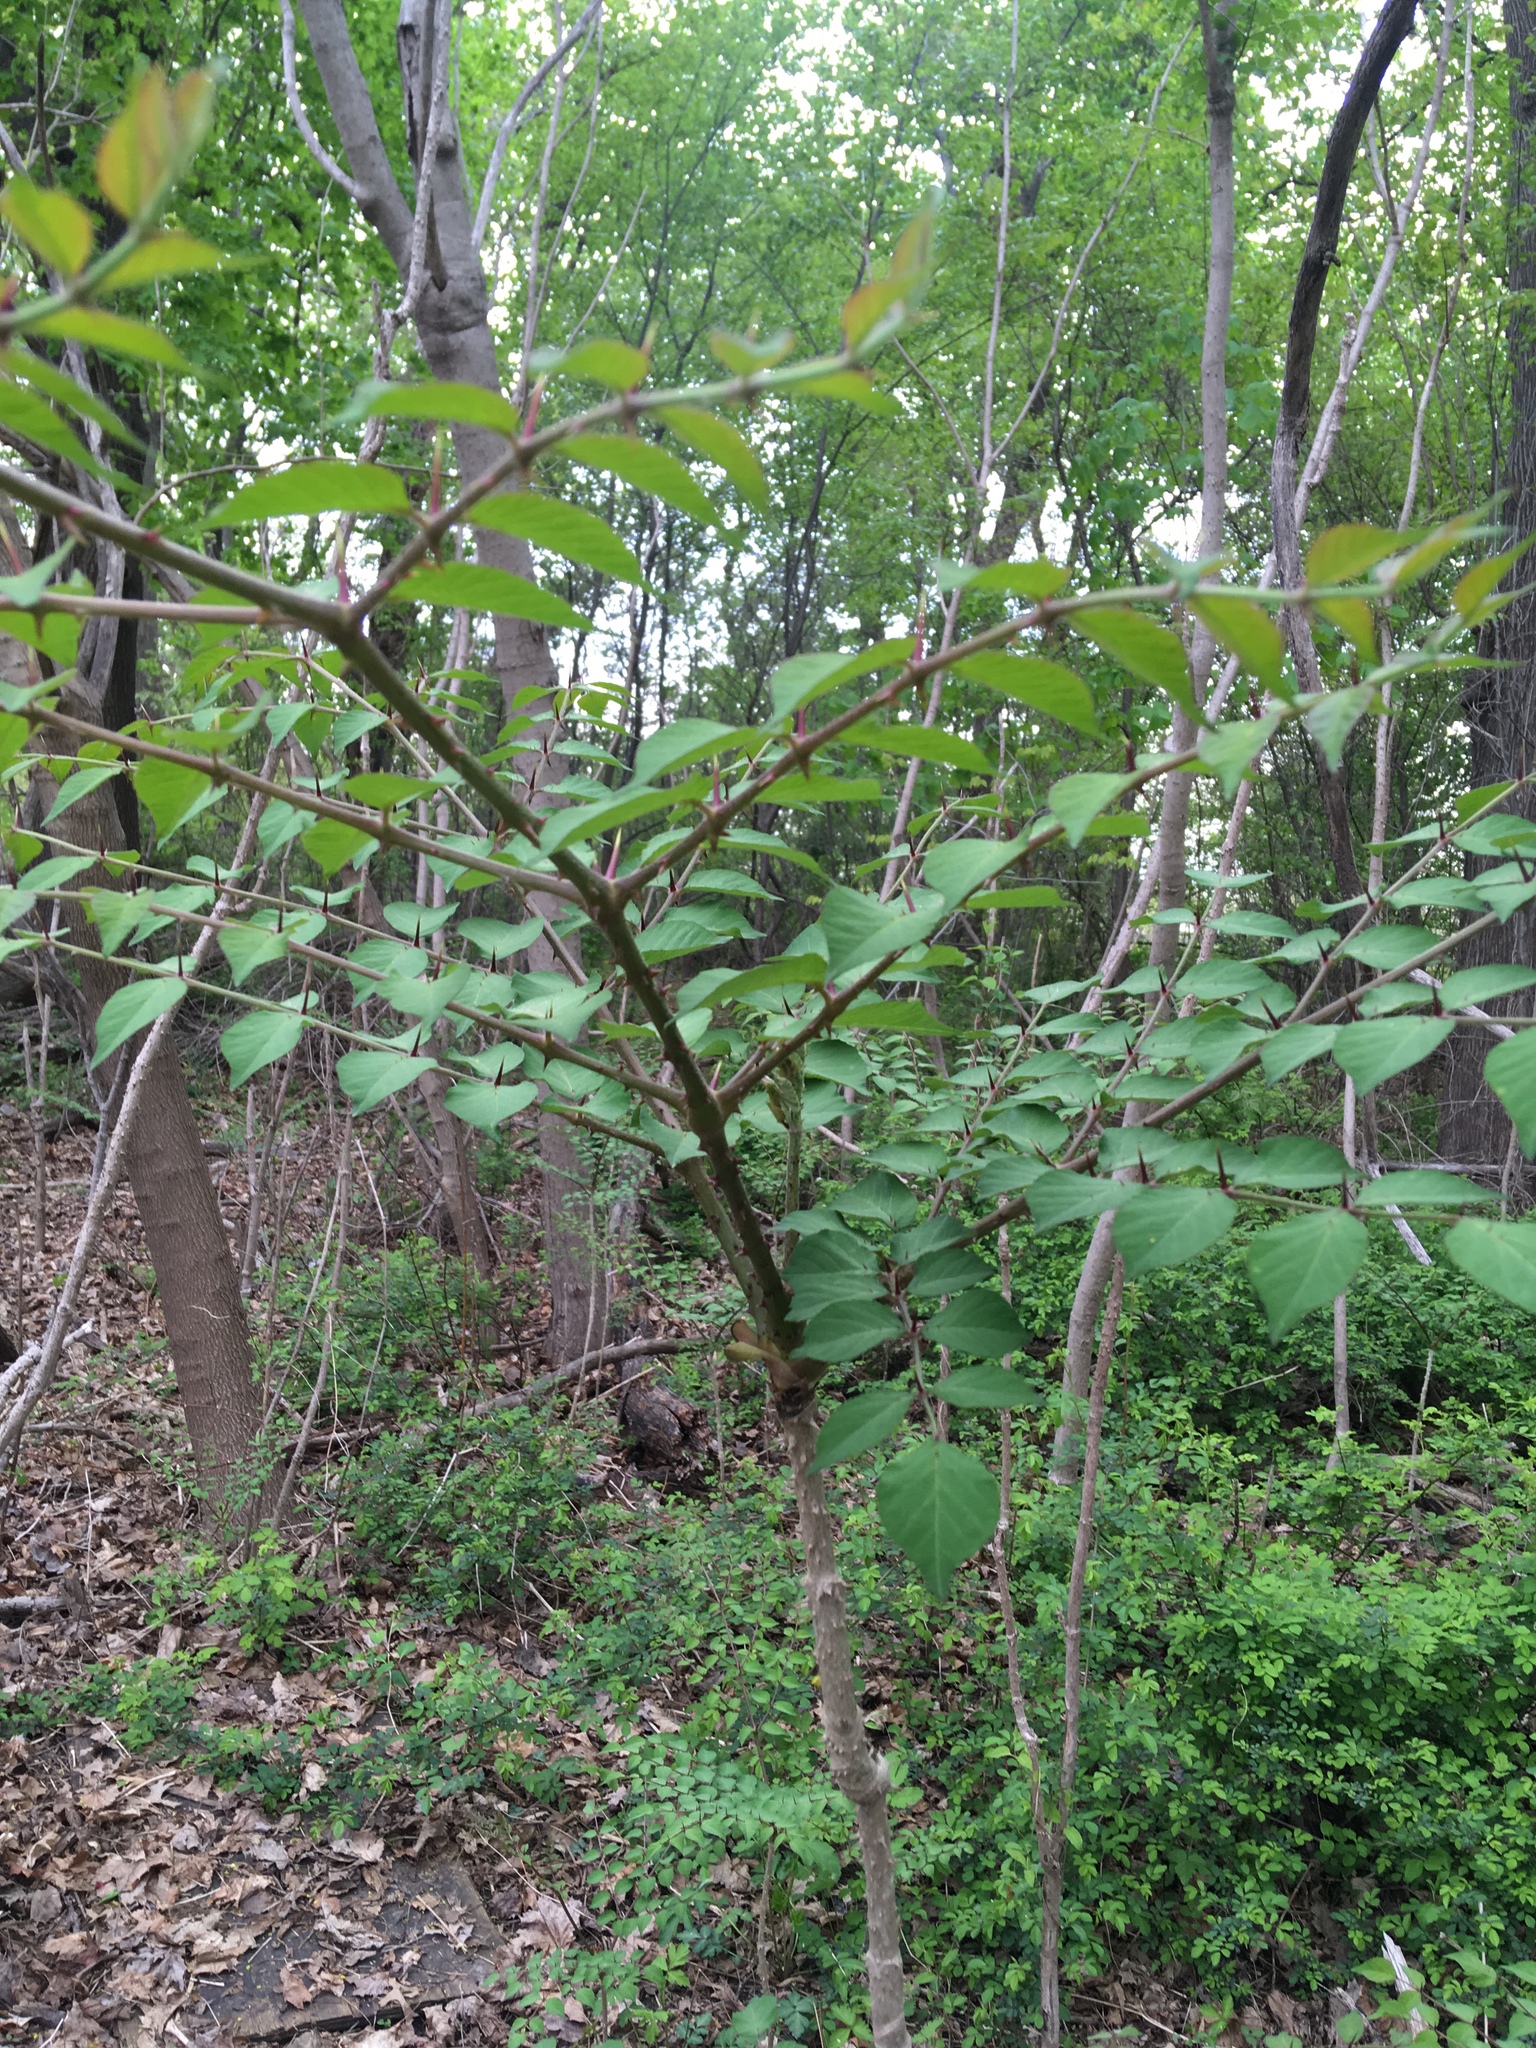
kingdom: Plantae
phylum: Tracheophyta
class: Magnoliopsida
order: Apiales
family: Araliaceae
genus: Aralia
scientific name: Aralia elata
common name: Japanese angelica-tree
